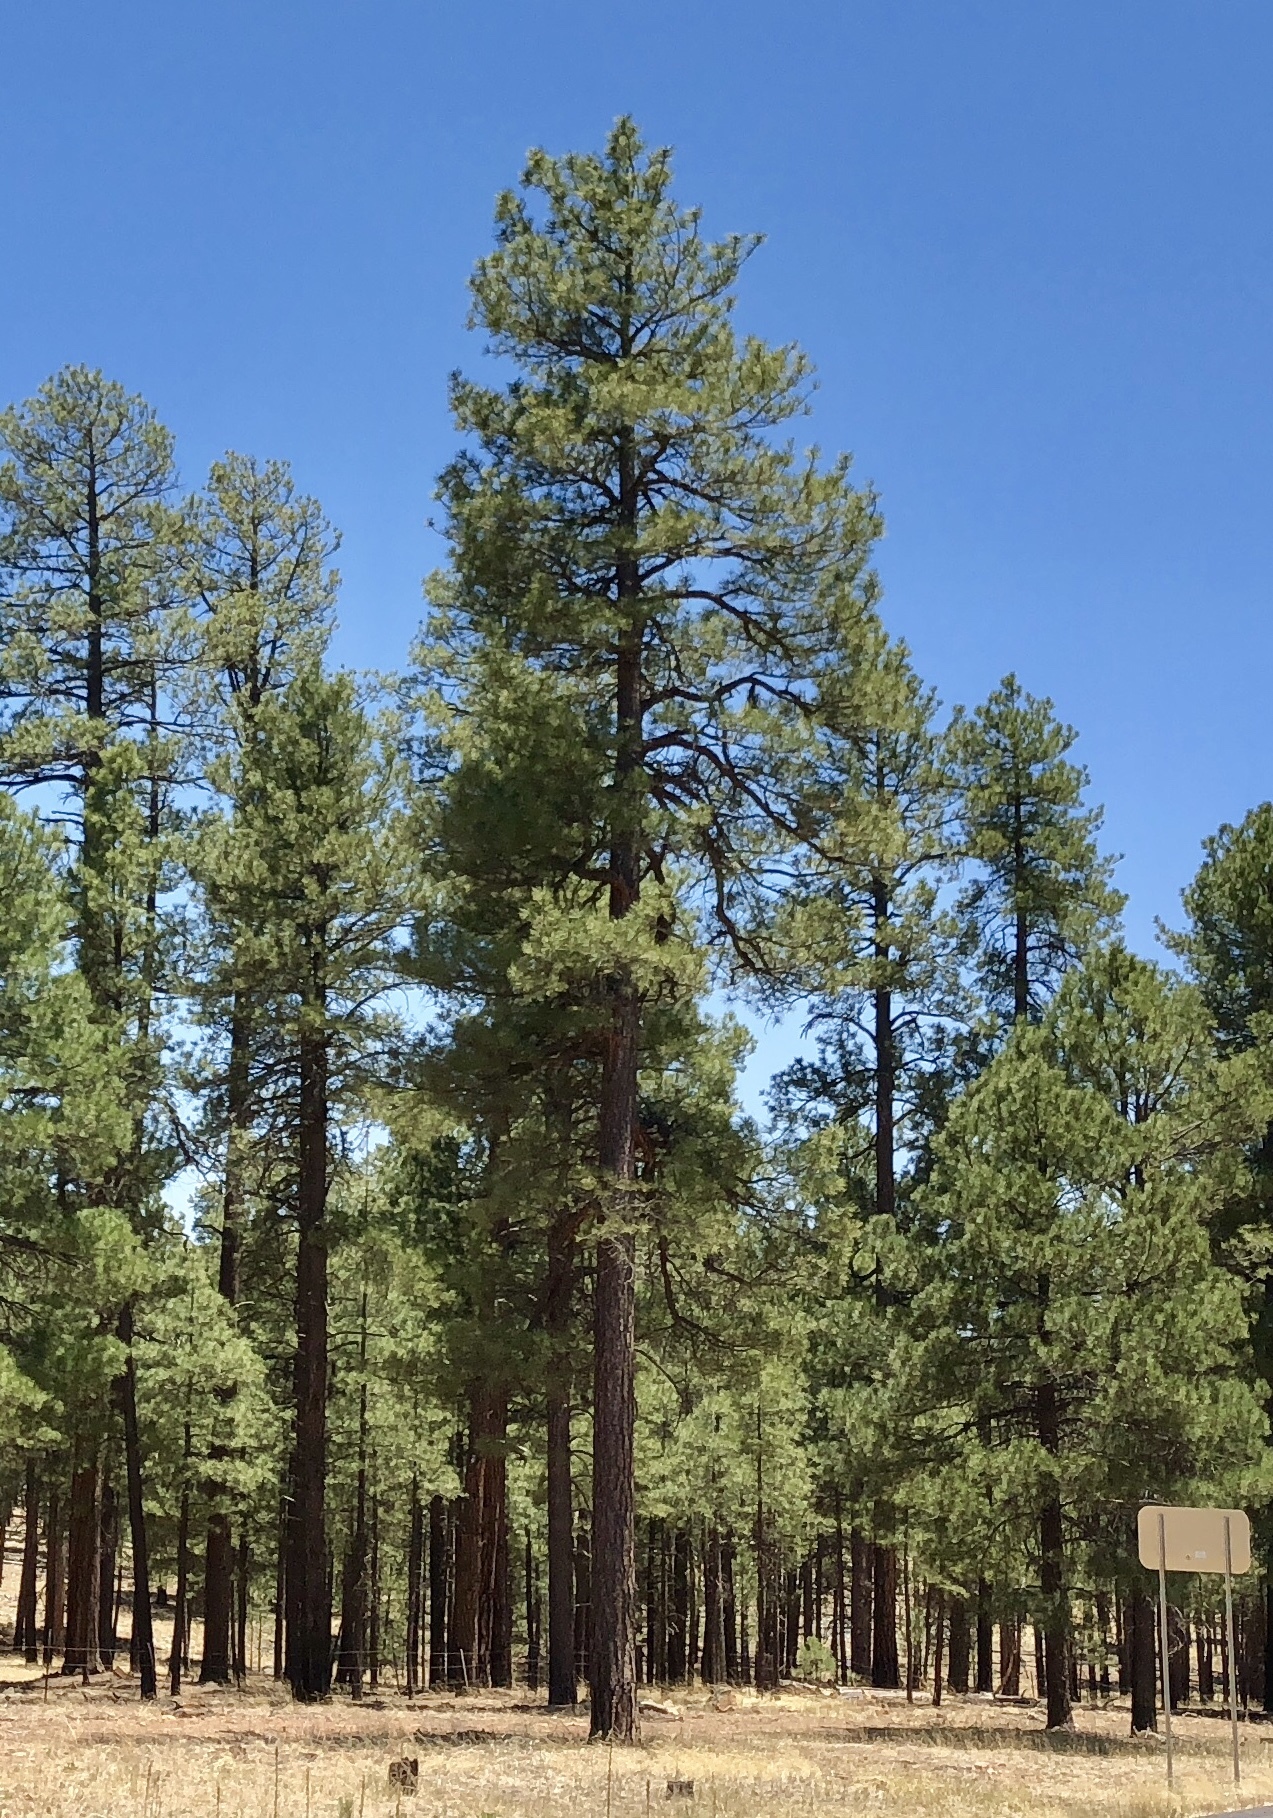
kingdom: Plantae
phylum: Tracheophyta
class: Pinopsida
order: Pinales
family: Pinaceae
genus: Pinus
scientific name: Pinus ponderosa
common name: Western yellow-pine
